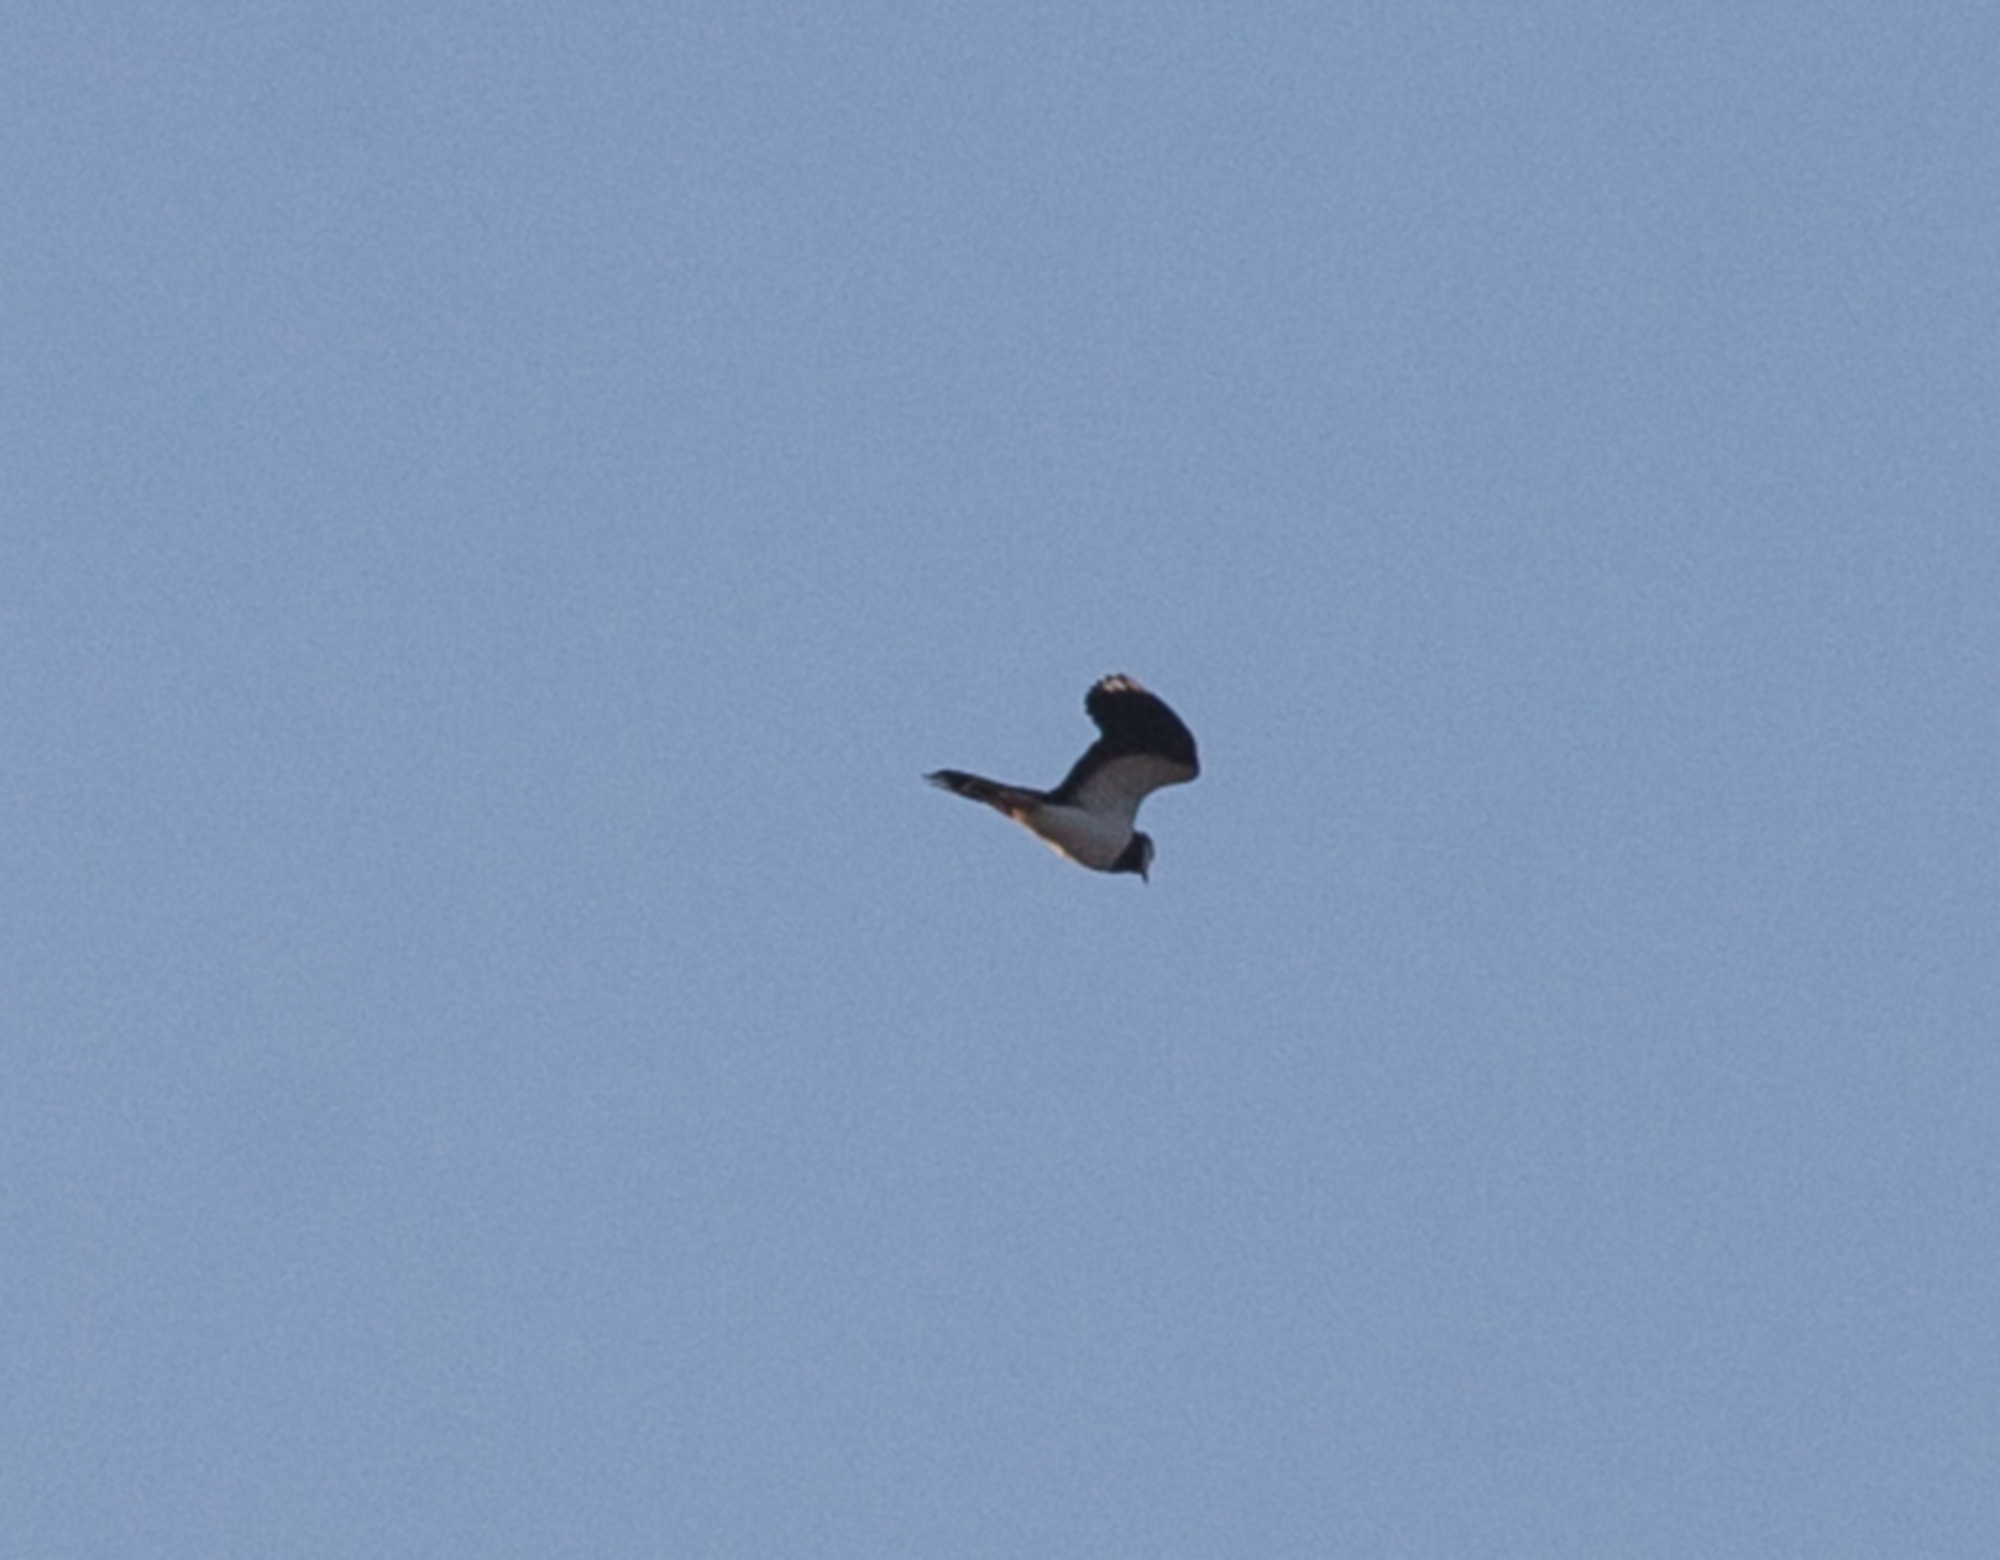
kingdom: Animalia
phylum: Chordata
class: Aves
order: Charadriiformes
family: Charadriidae
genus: Vanellus
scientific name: Vanellus vanellus
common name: Northern lapwing
